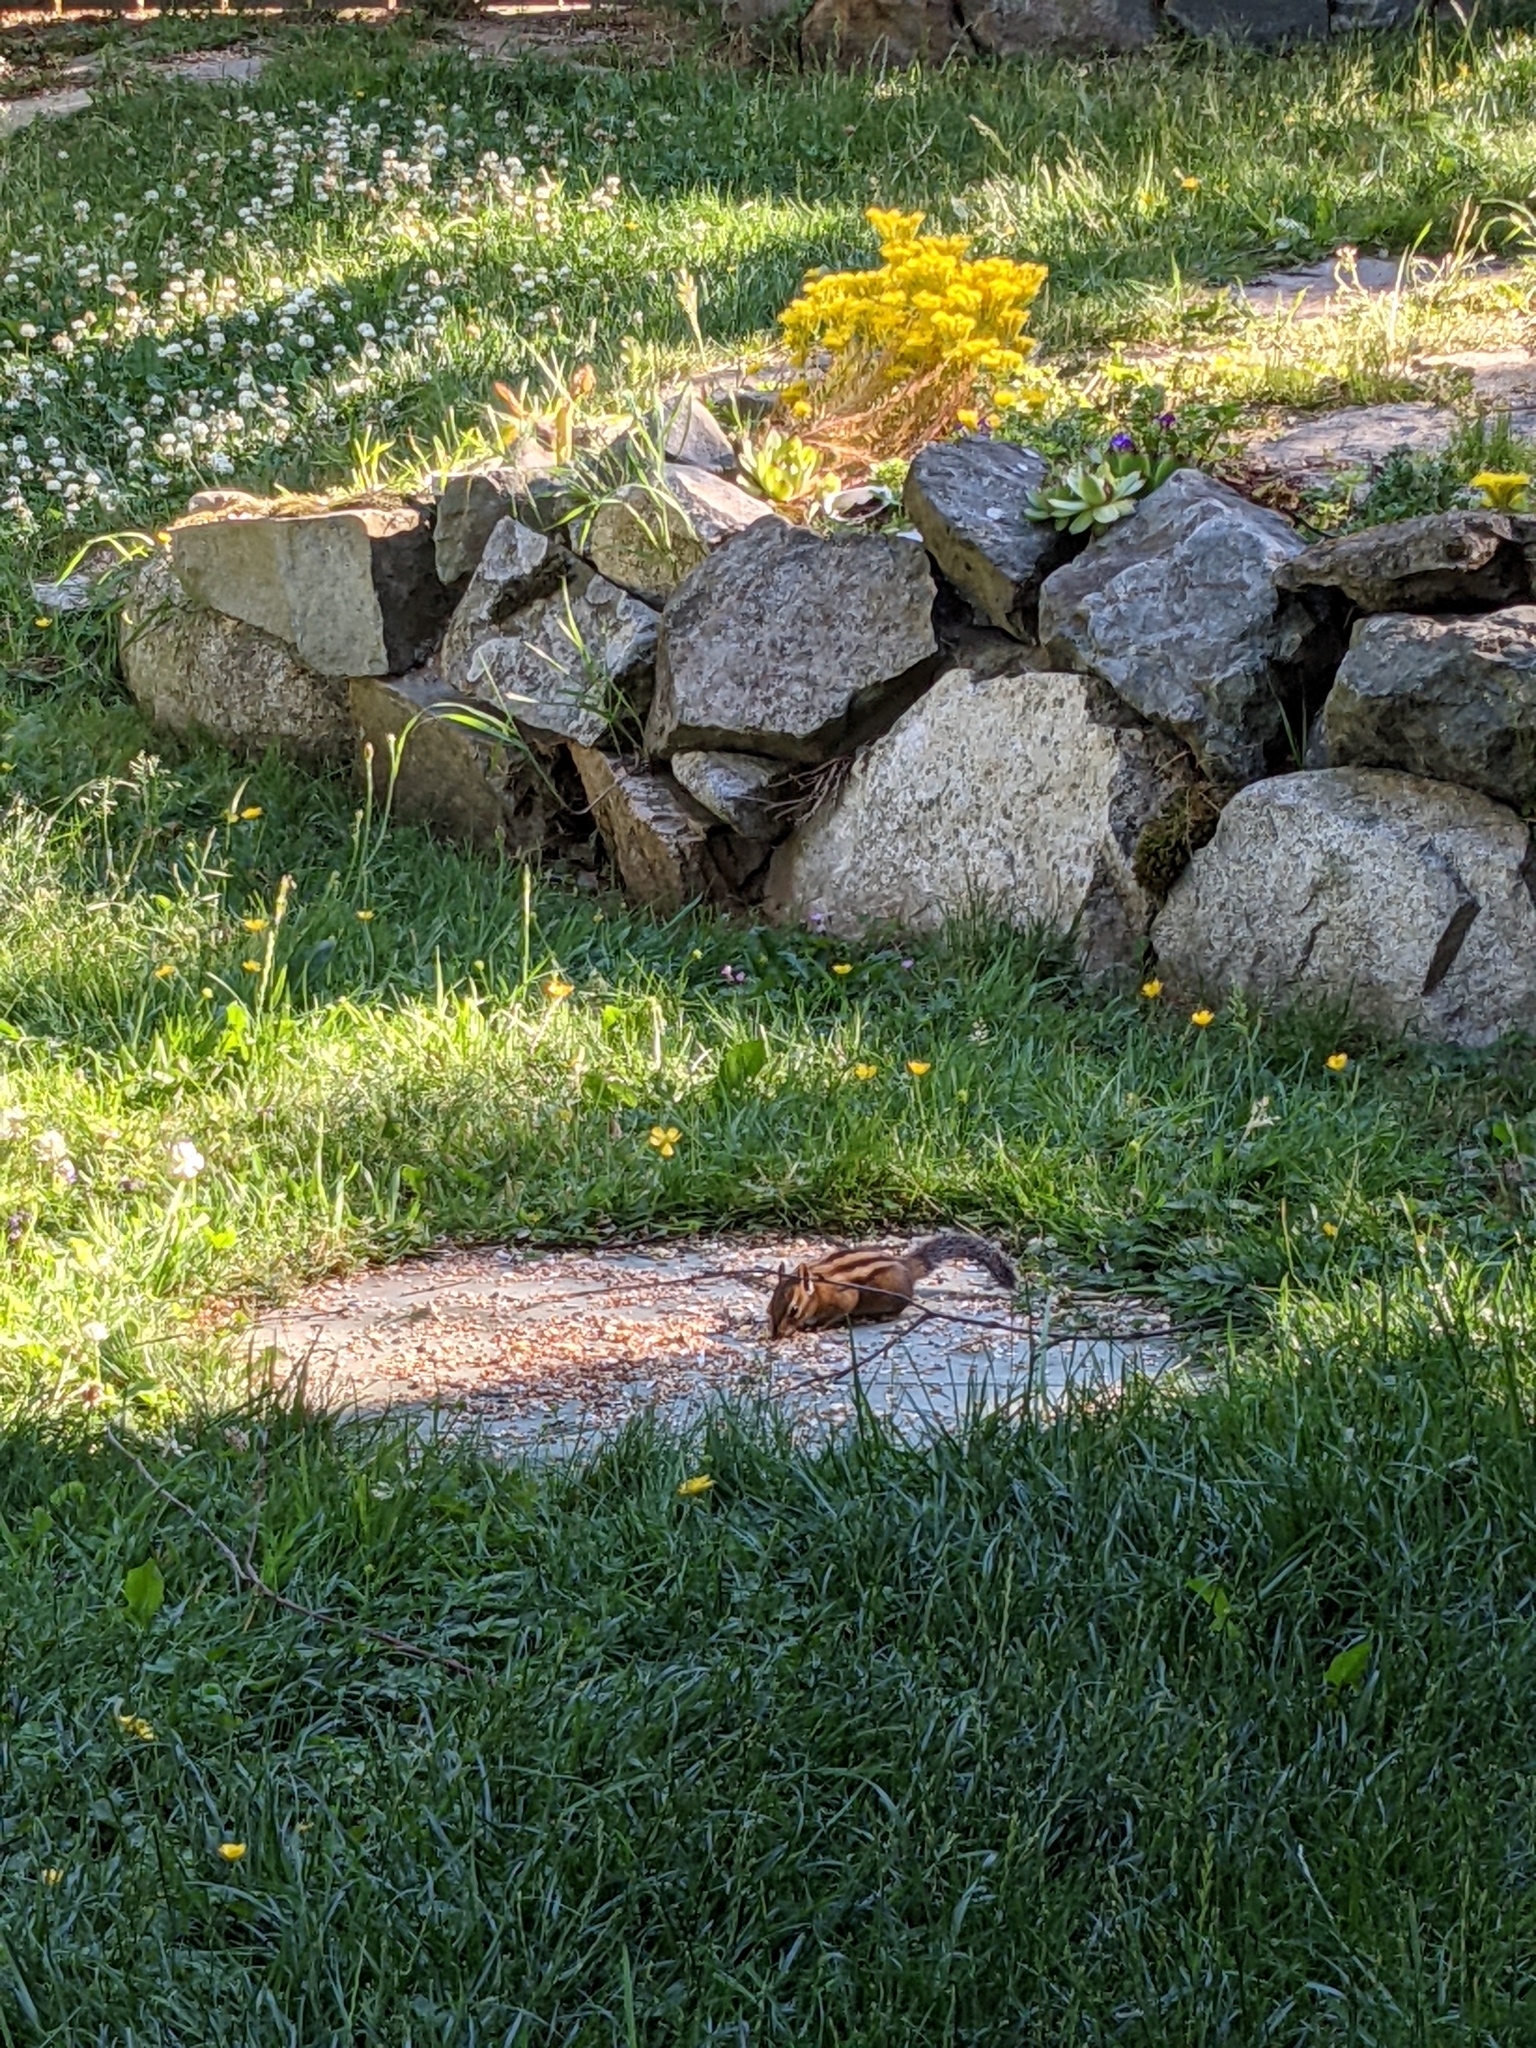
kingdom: Animalia
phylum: Chordata
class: Mammalia
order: Rodentia
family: Sciuridae
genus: Tamias
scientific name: Tamias townsendii
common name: Townsend's chipmunk
